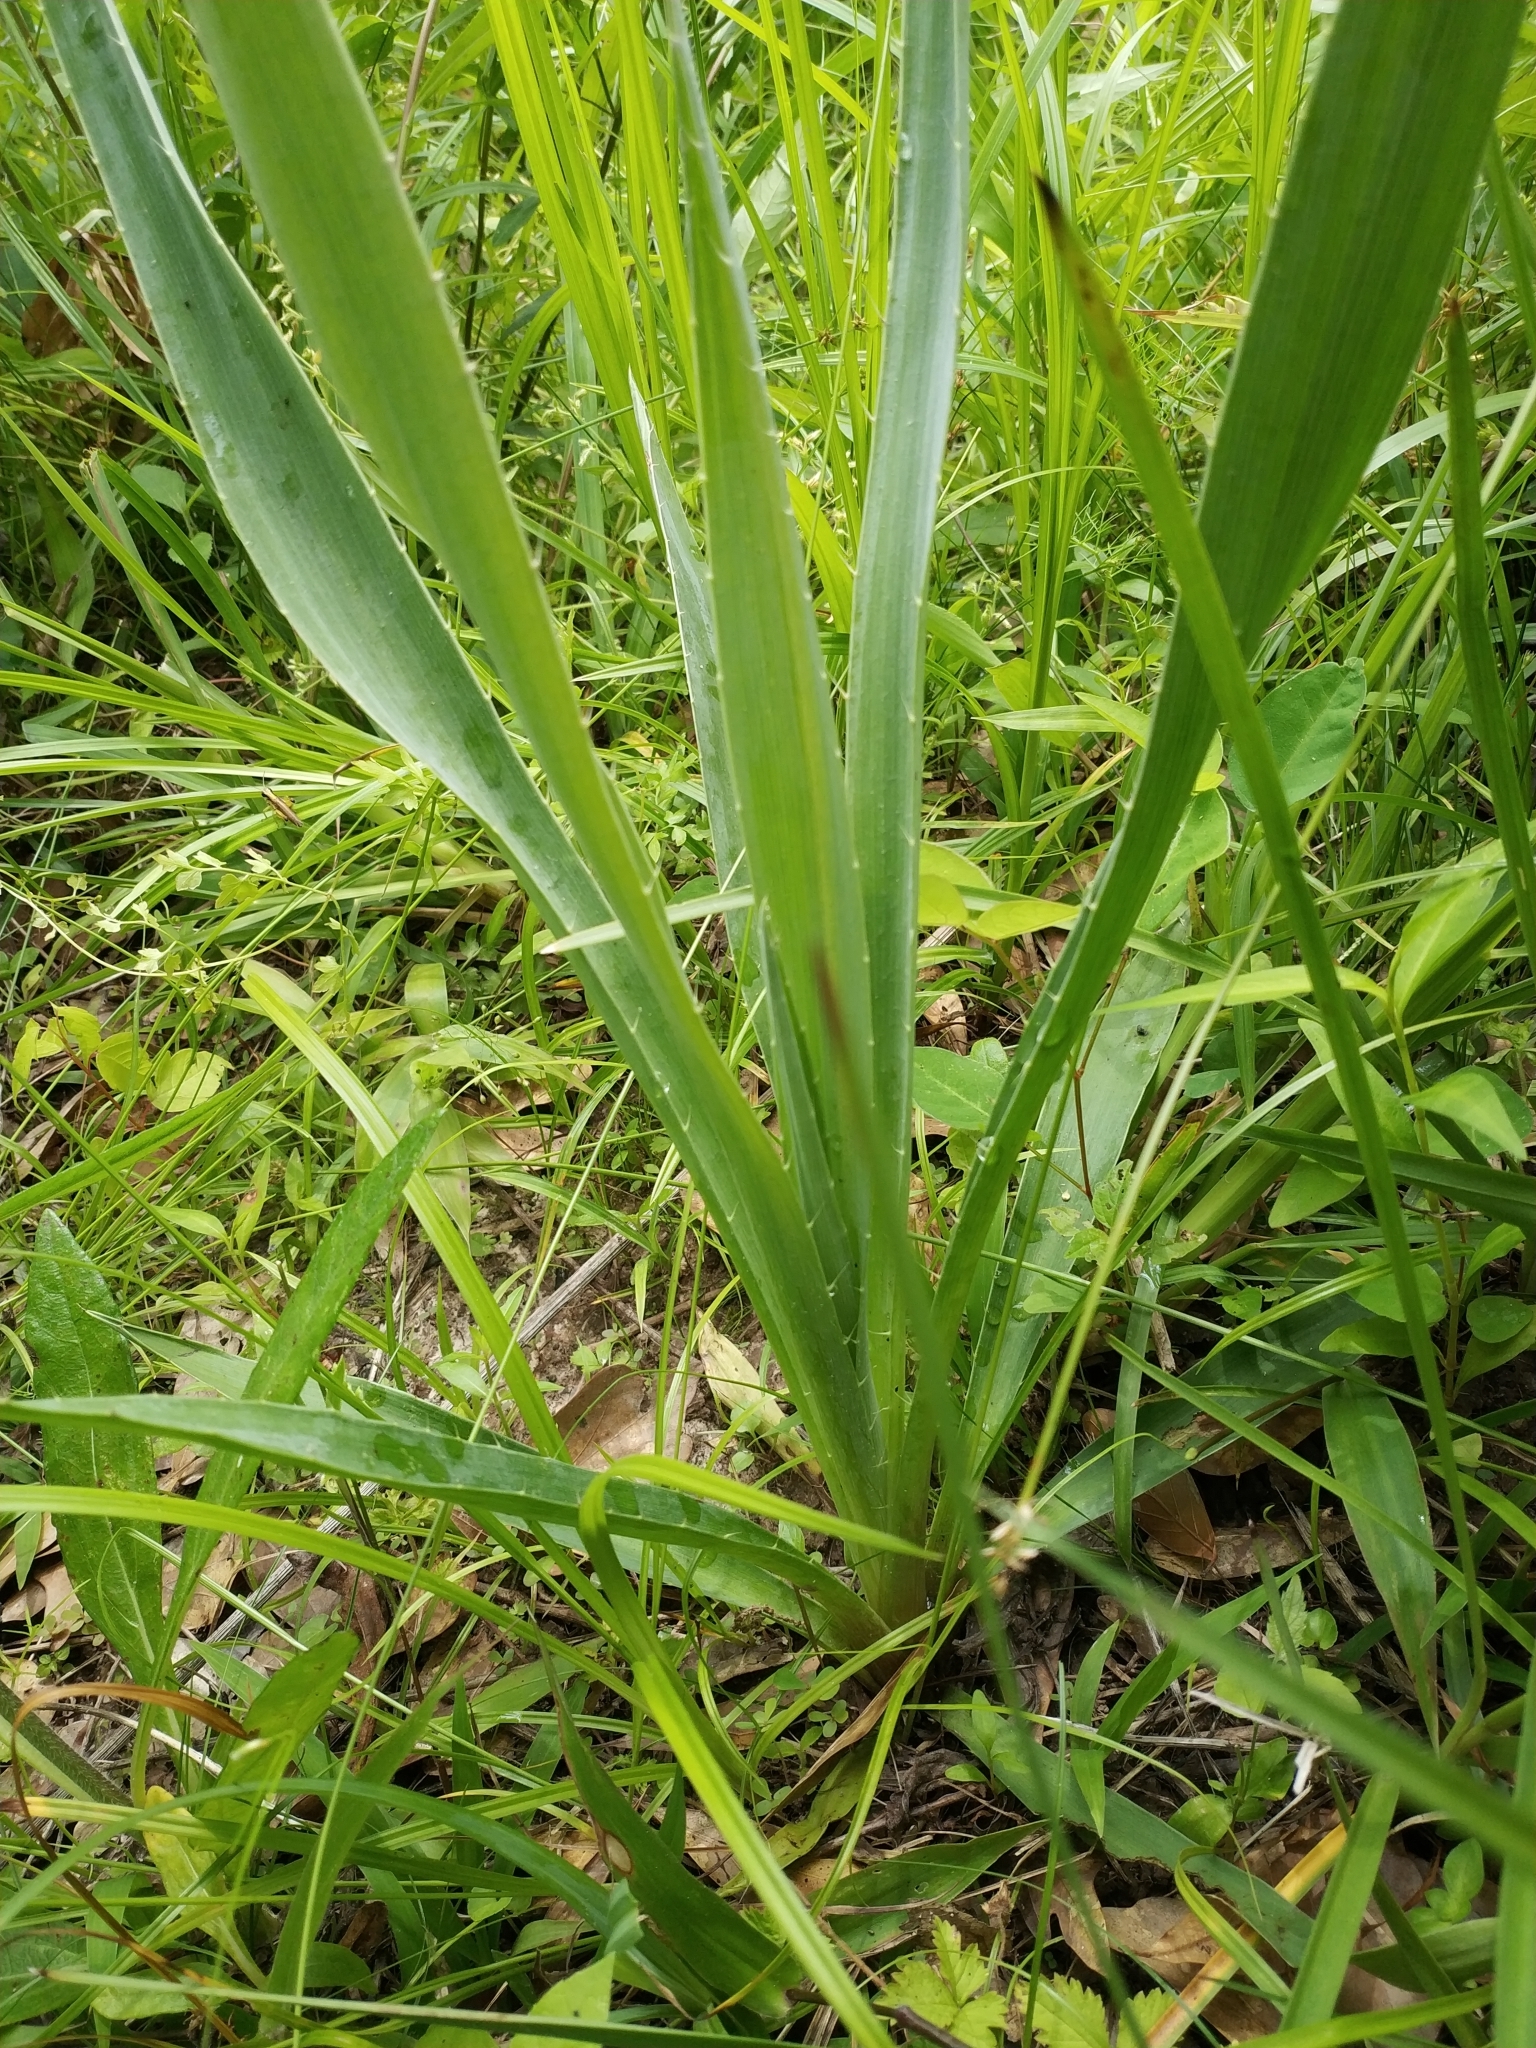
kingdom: Plantae
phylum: Tracheophyta
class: Magnoliopsida
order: Apiales
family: Apiaceae
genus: Eryngium
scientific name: Eryngium yuccifolium
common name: Button eryngo
